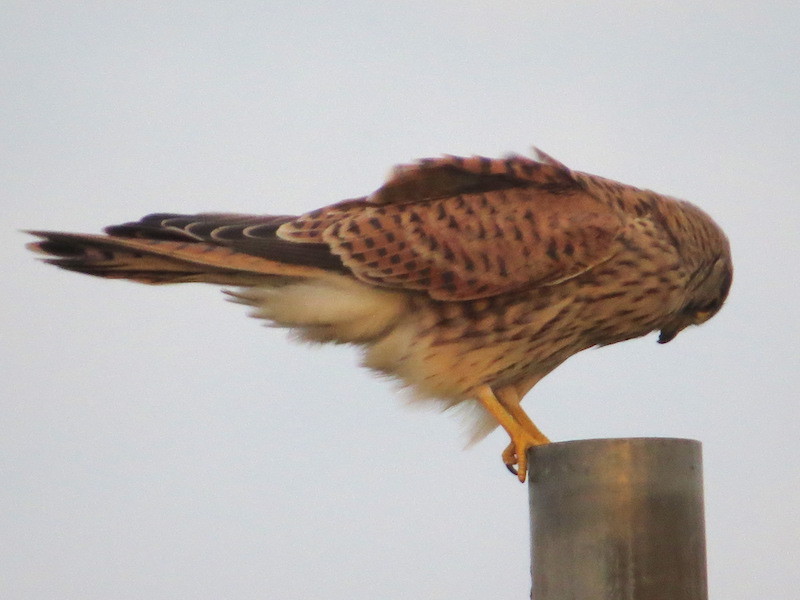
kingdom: Animalia
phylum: Chordata
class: Aves
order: Falconiformes
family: Falconidae
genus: Falco
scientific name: Falco tinnunculus
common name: Common kestrel
